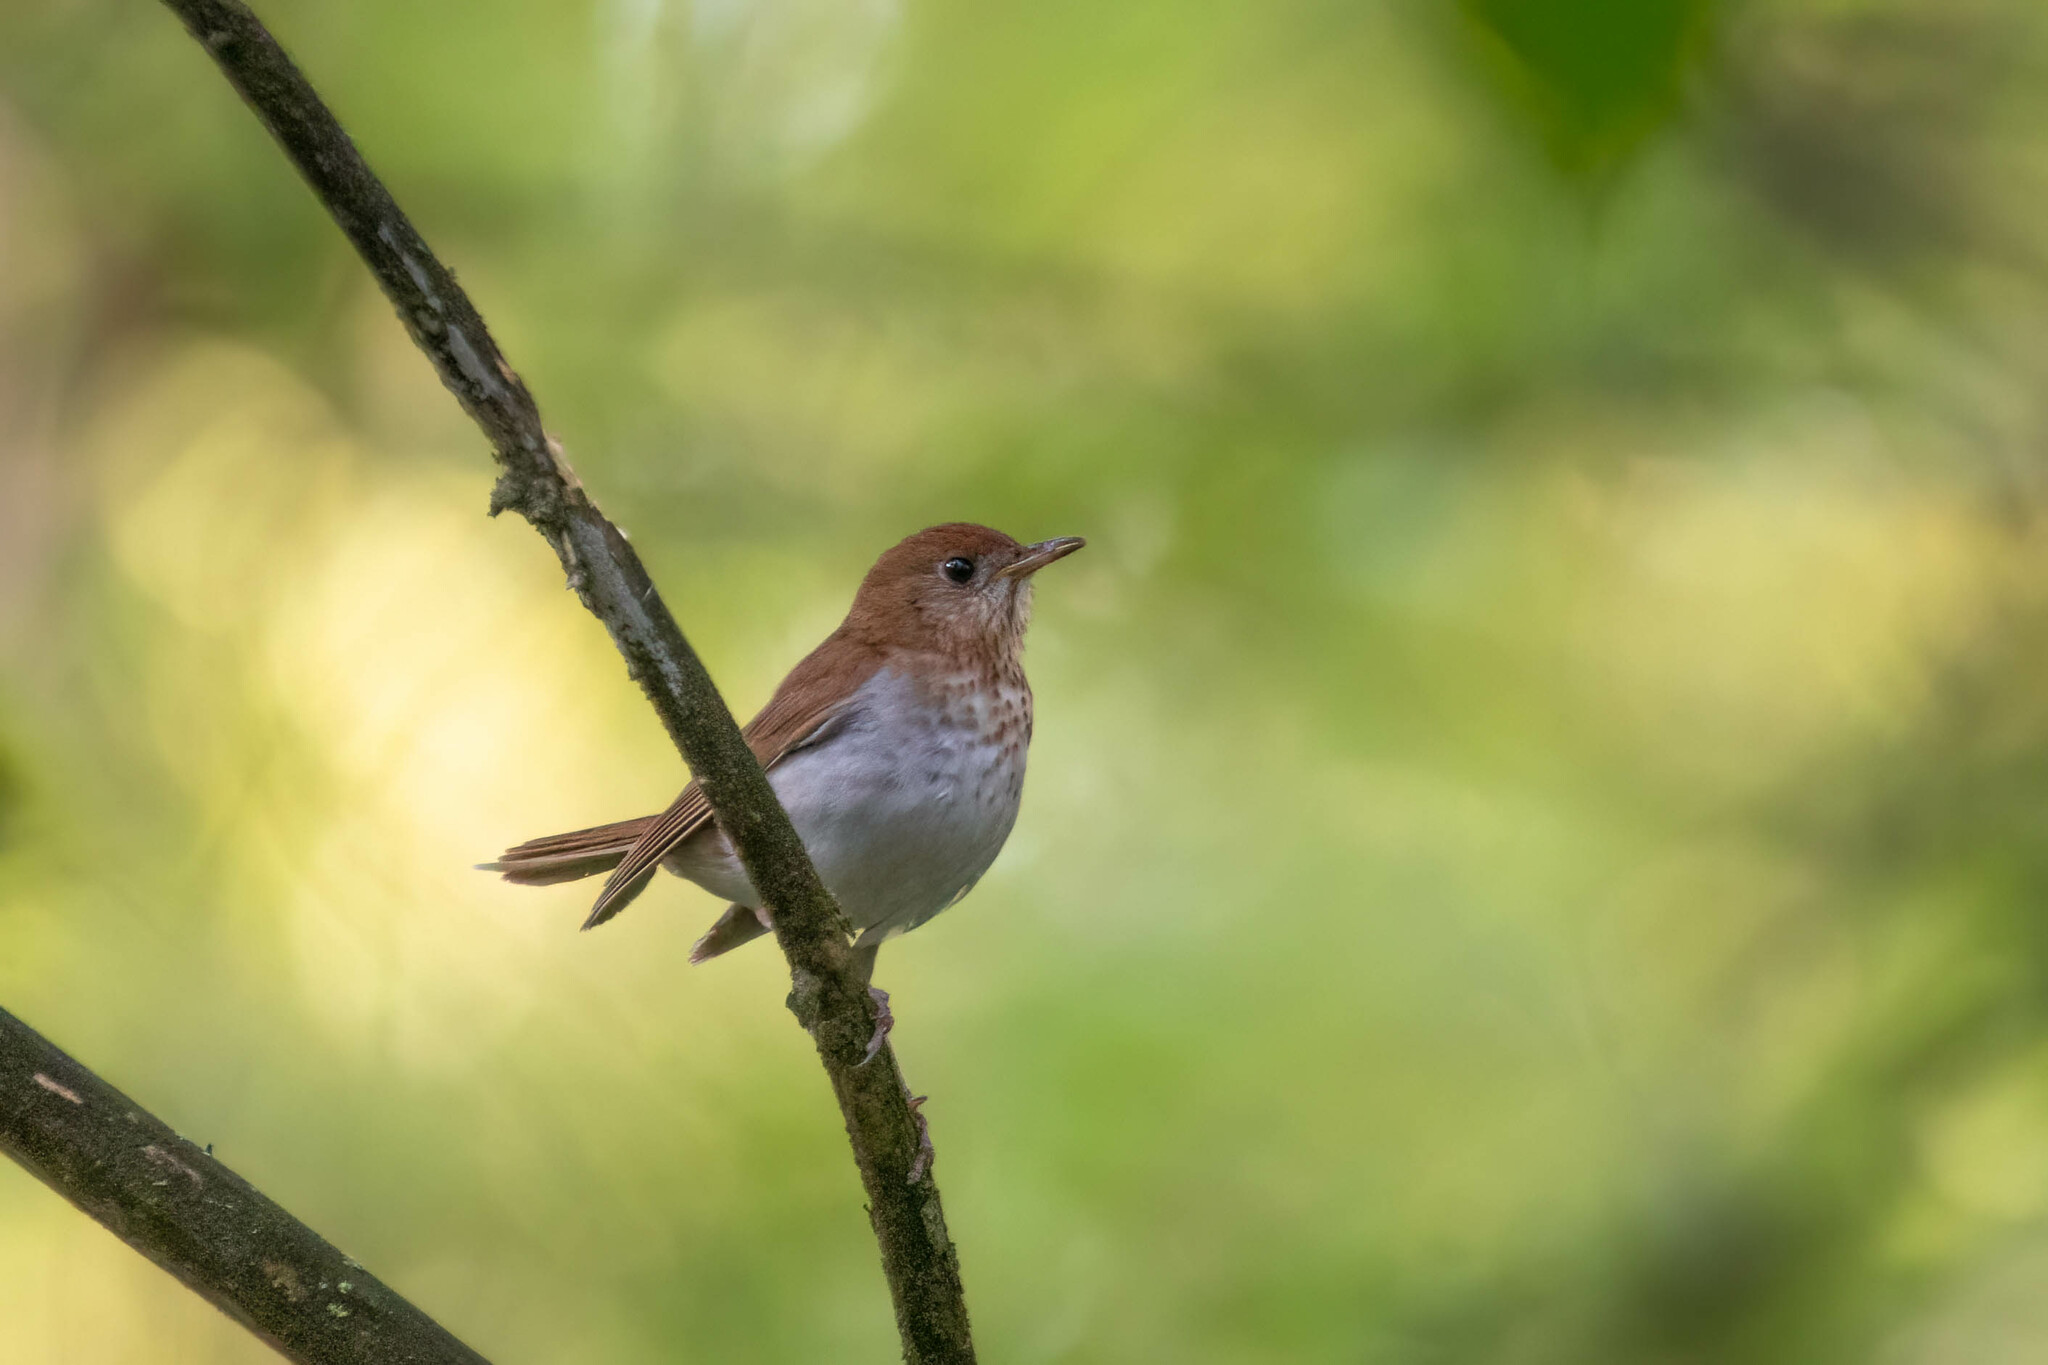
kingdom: Animalia
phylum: Chordata
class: Aves
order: Passeriformes
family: Turdidae
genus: Catharus
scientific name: Catharus fuscescens
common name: Veery
